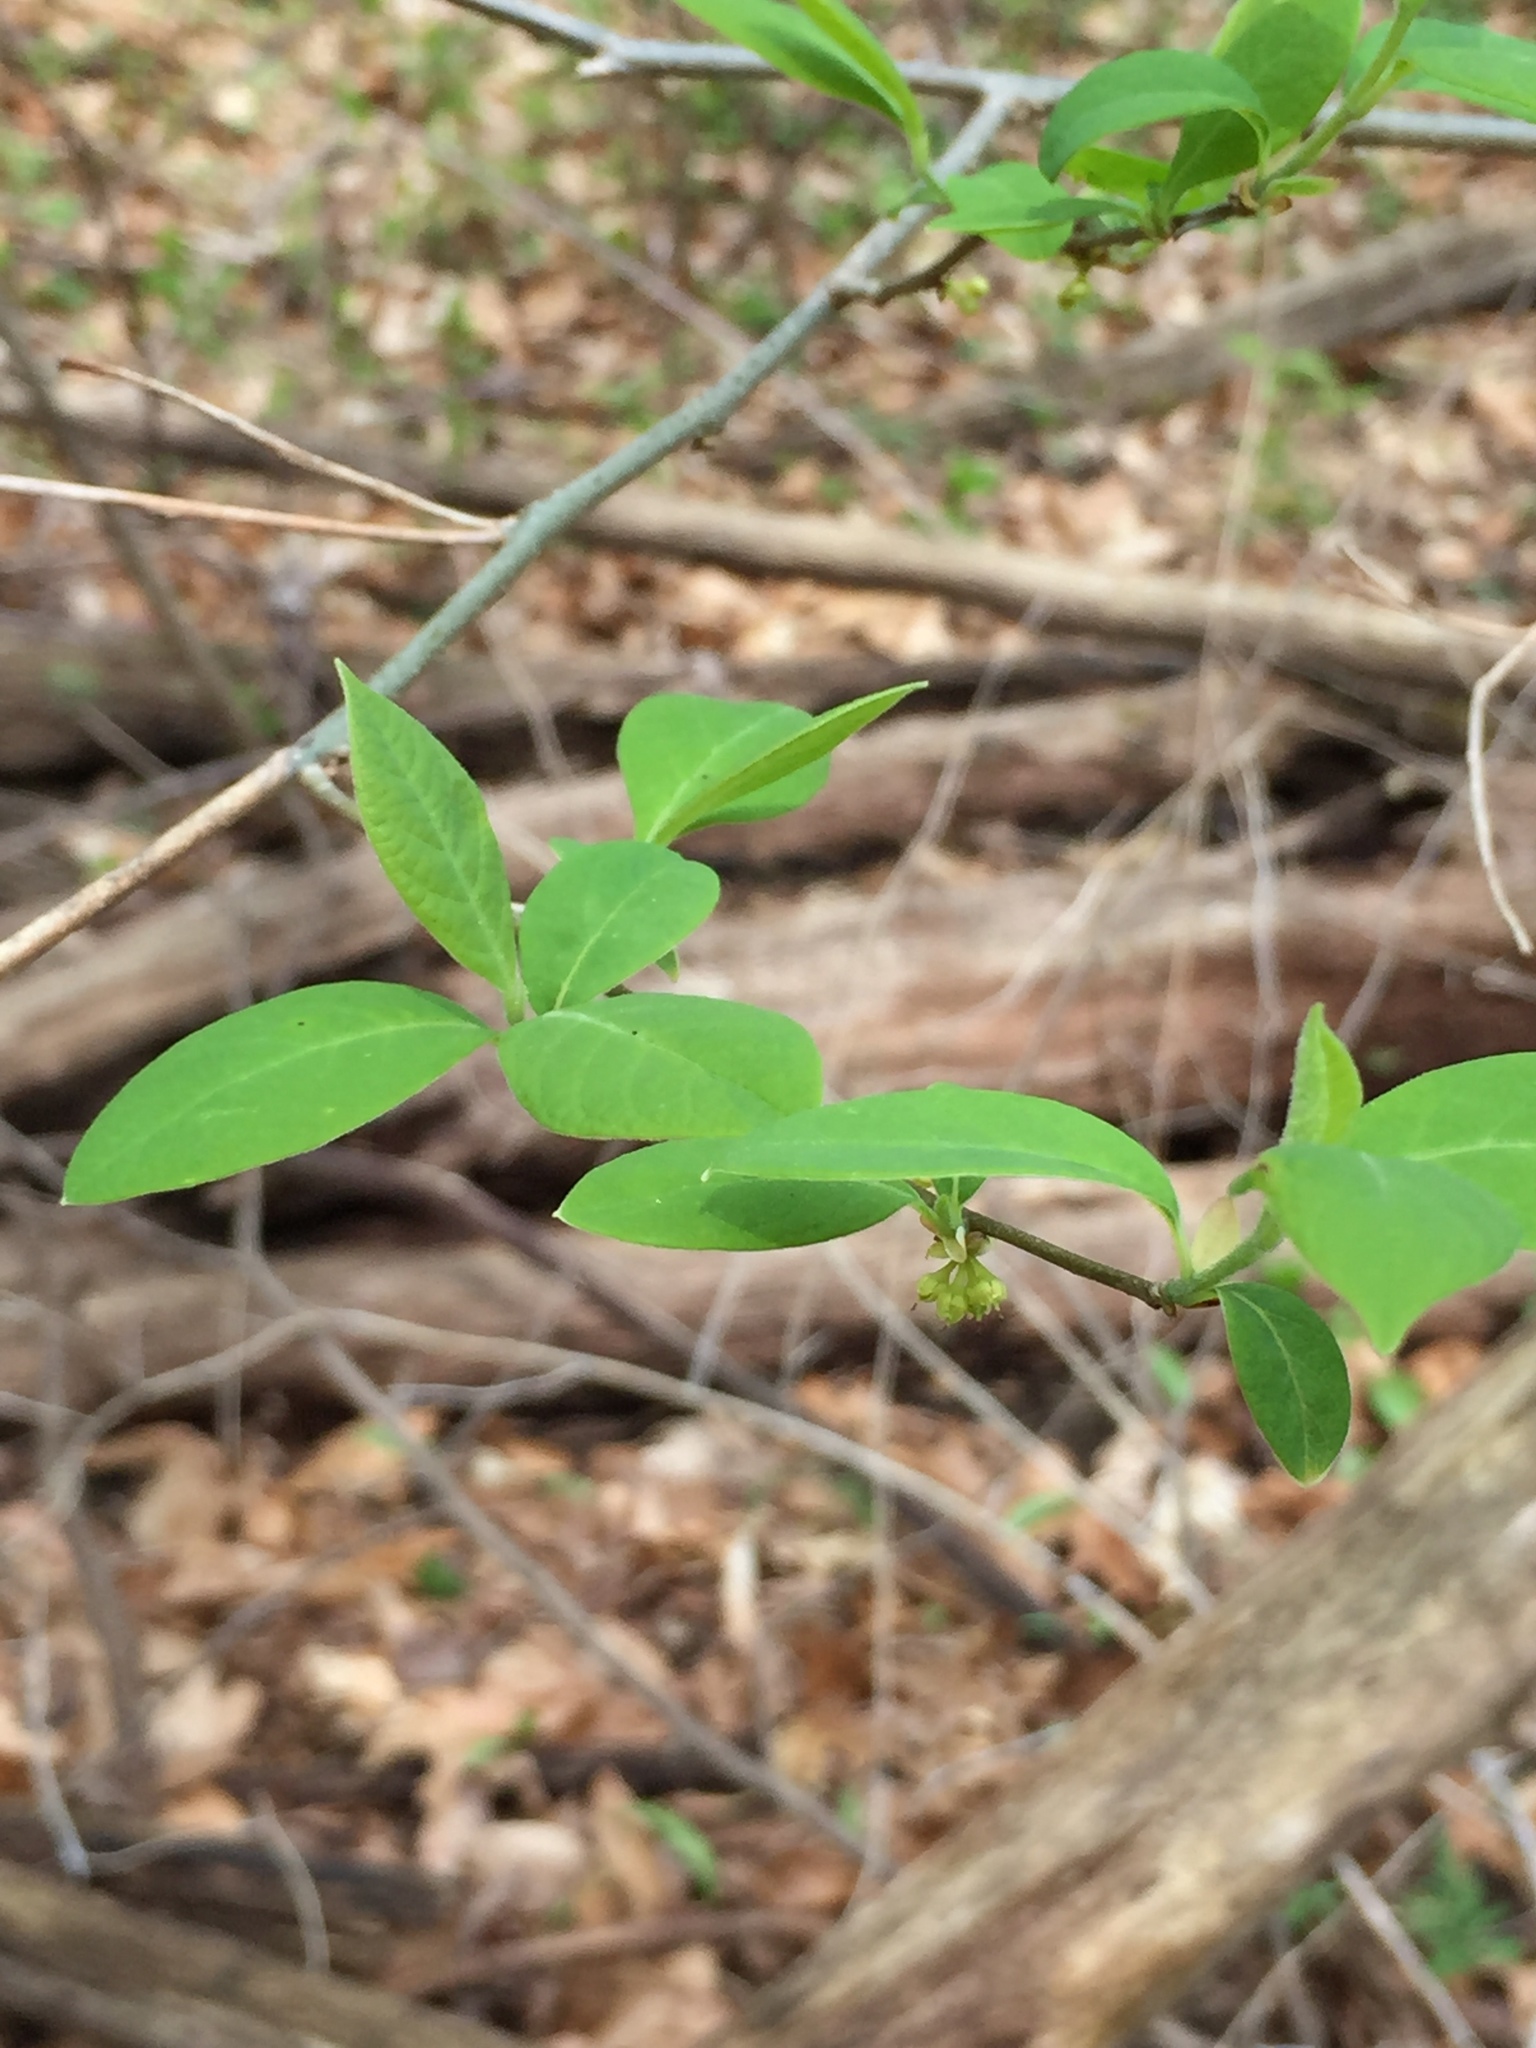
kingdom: Plantae
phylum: Tracheophyta
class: Magnoliopsida
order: Laurales
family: Lauraceae
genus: Lindera
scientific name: Lindera benzoin
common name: Spicebush
